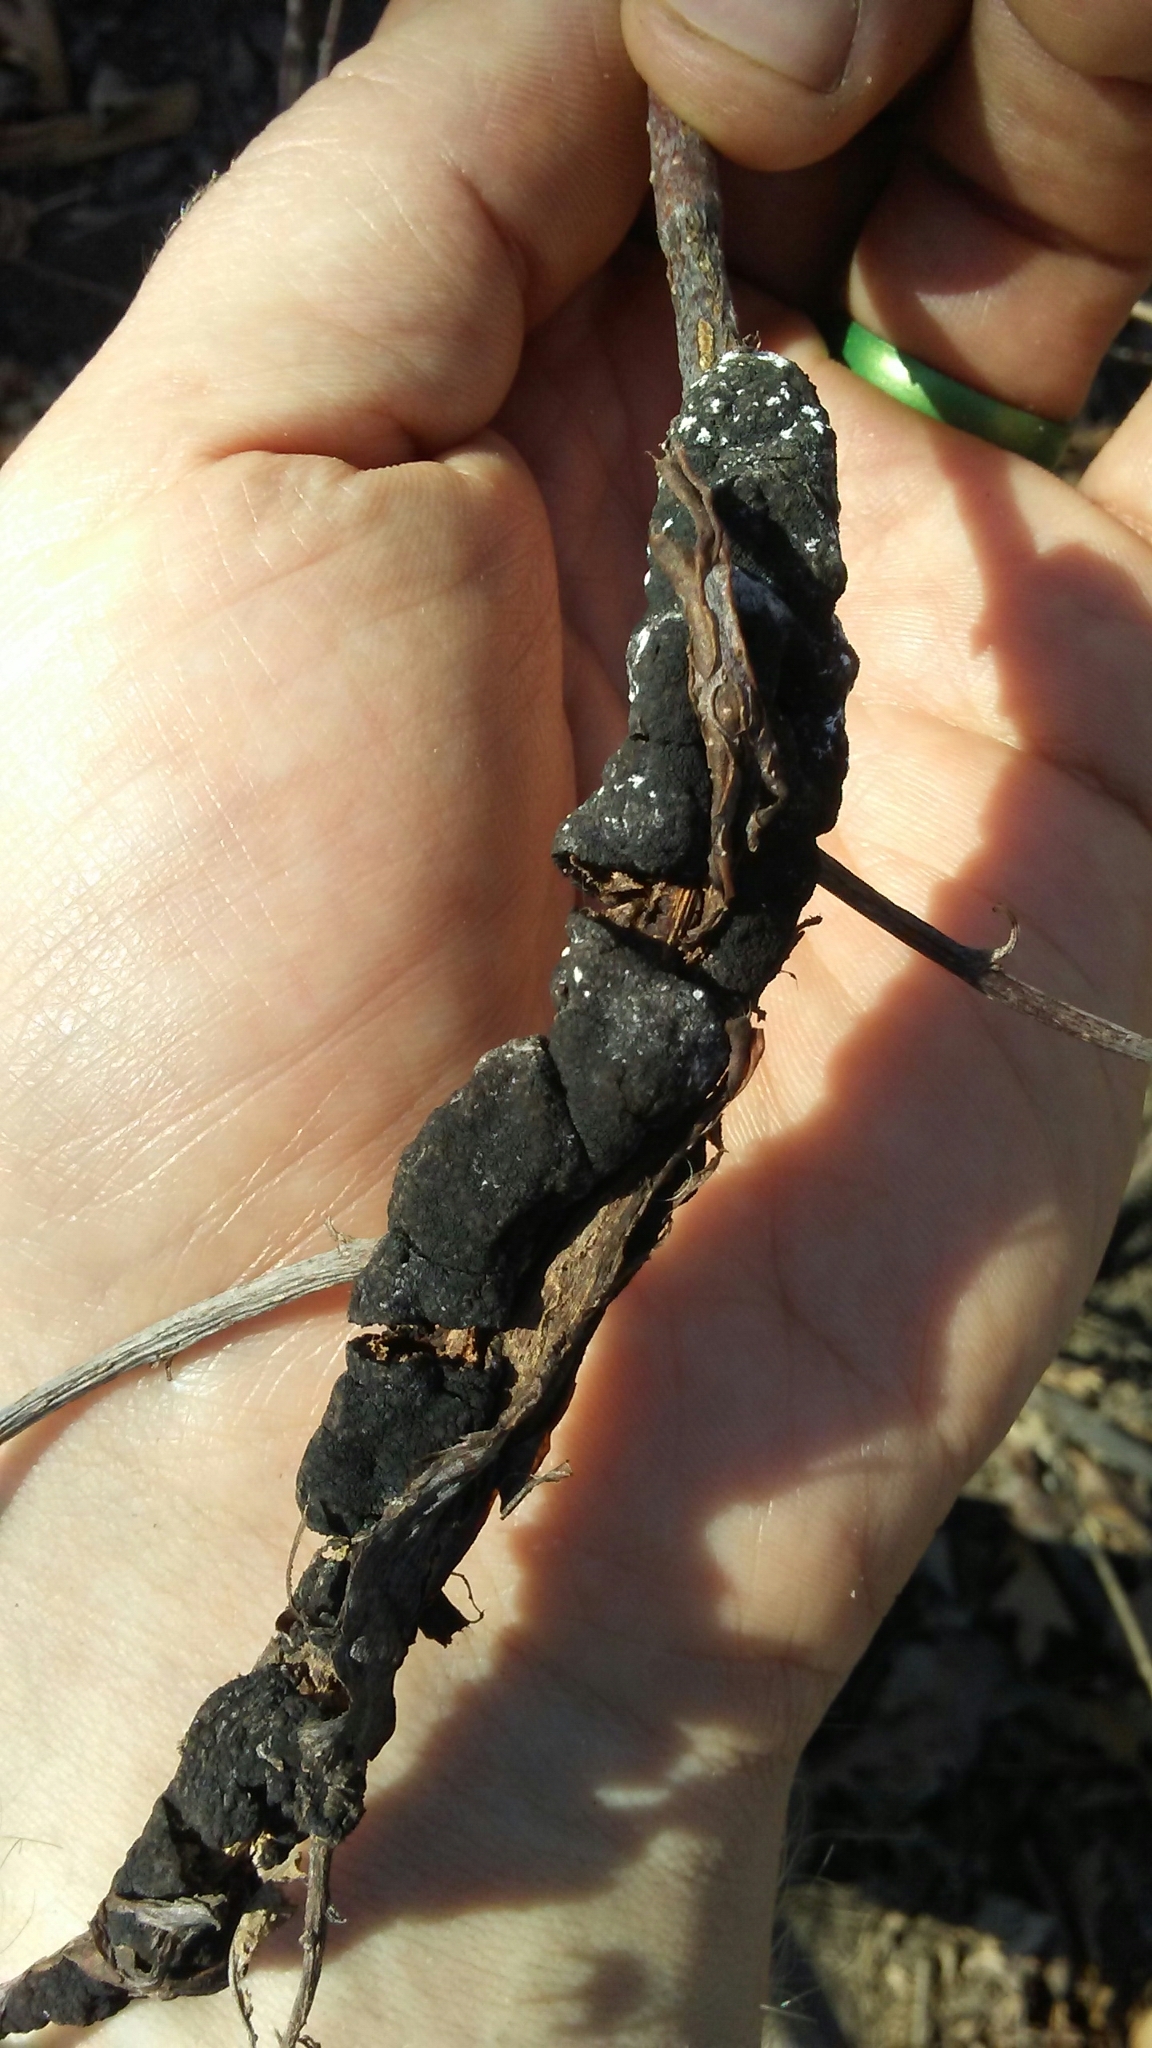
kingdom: Fungi
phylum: Ascomycota
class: Dothideomycetes
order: Venturiales
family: Venturiaceae
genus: Apiosporina
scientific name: Apiosporina morbosa
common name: Black knot
